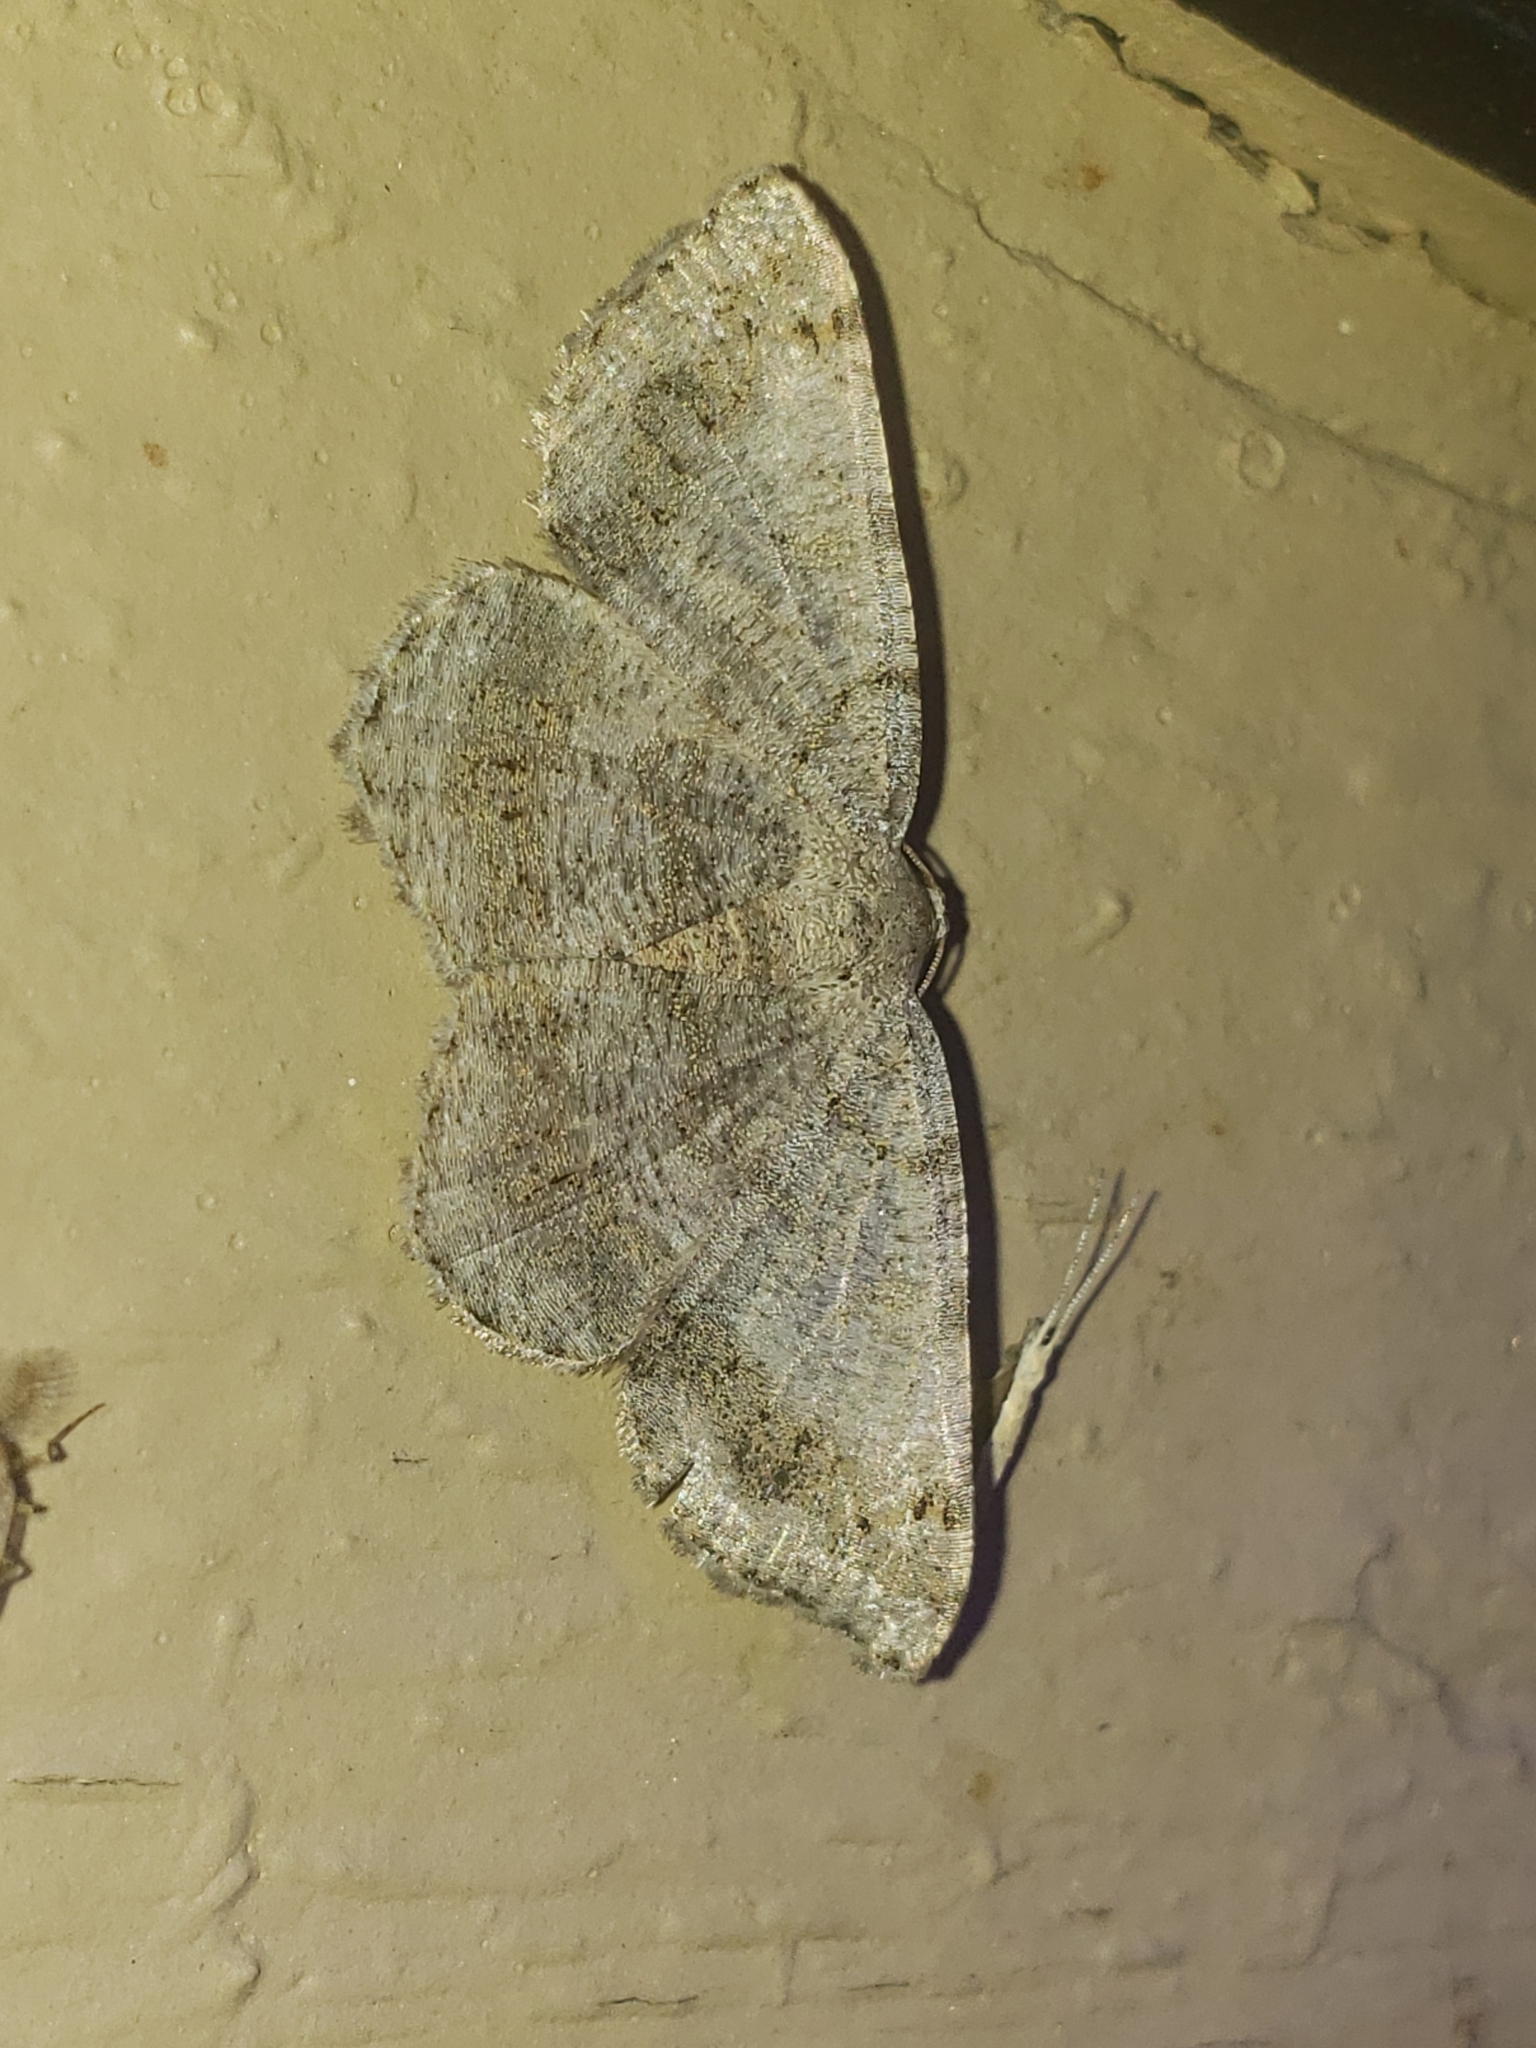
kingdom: Animalia
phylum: Arthropoda
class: Insecta
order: Lepidoptera
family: Geometridae
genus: Digrammia
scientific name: Digrammia ocellinata
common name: Faint-spotted angle
